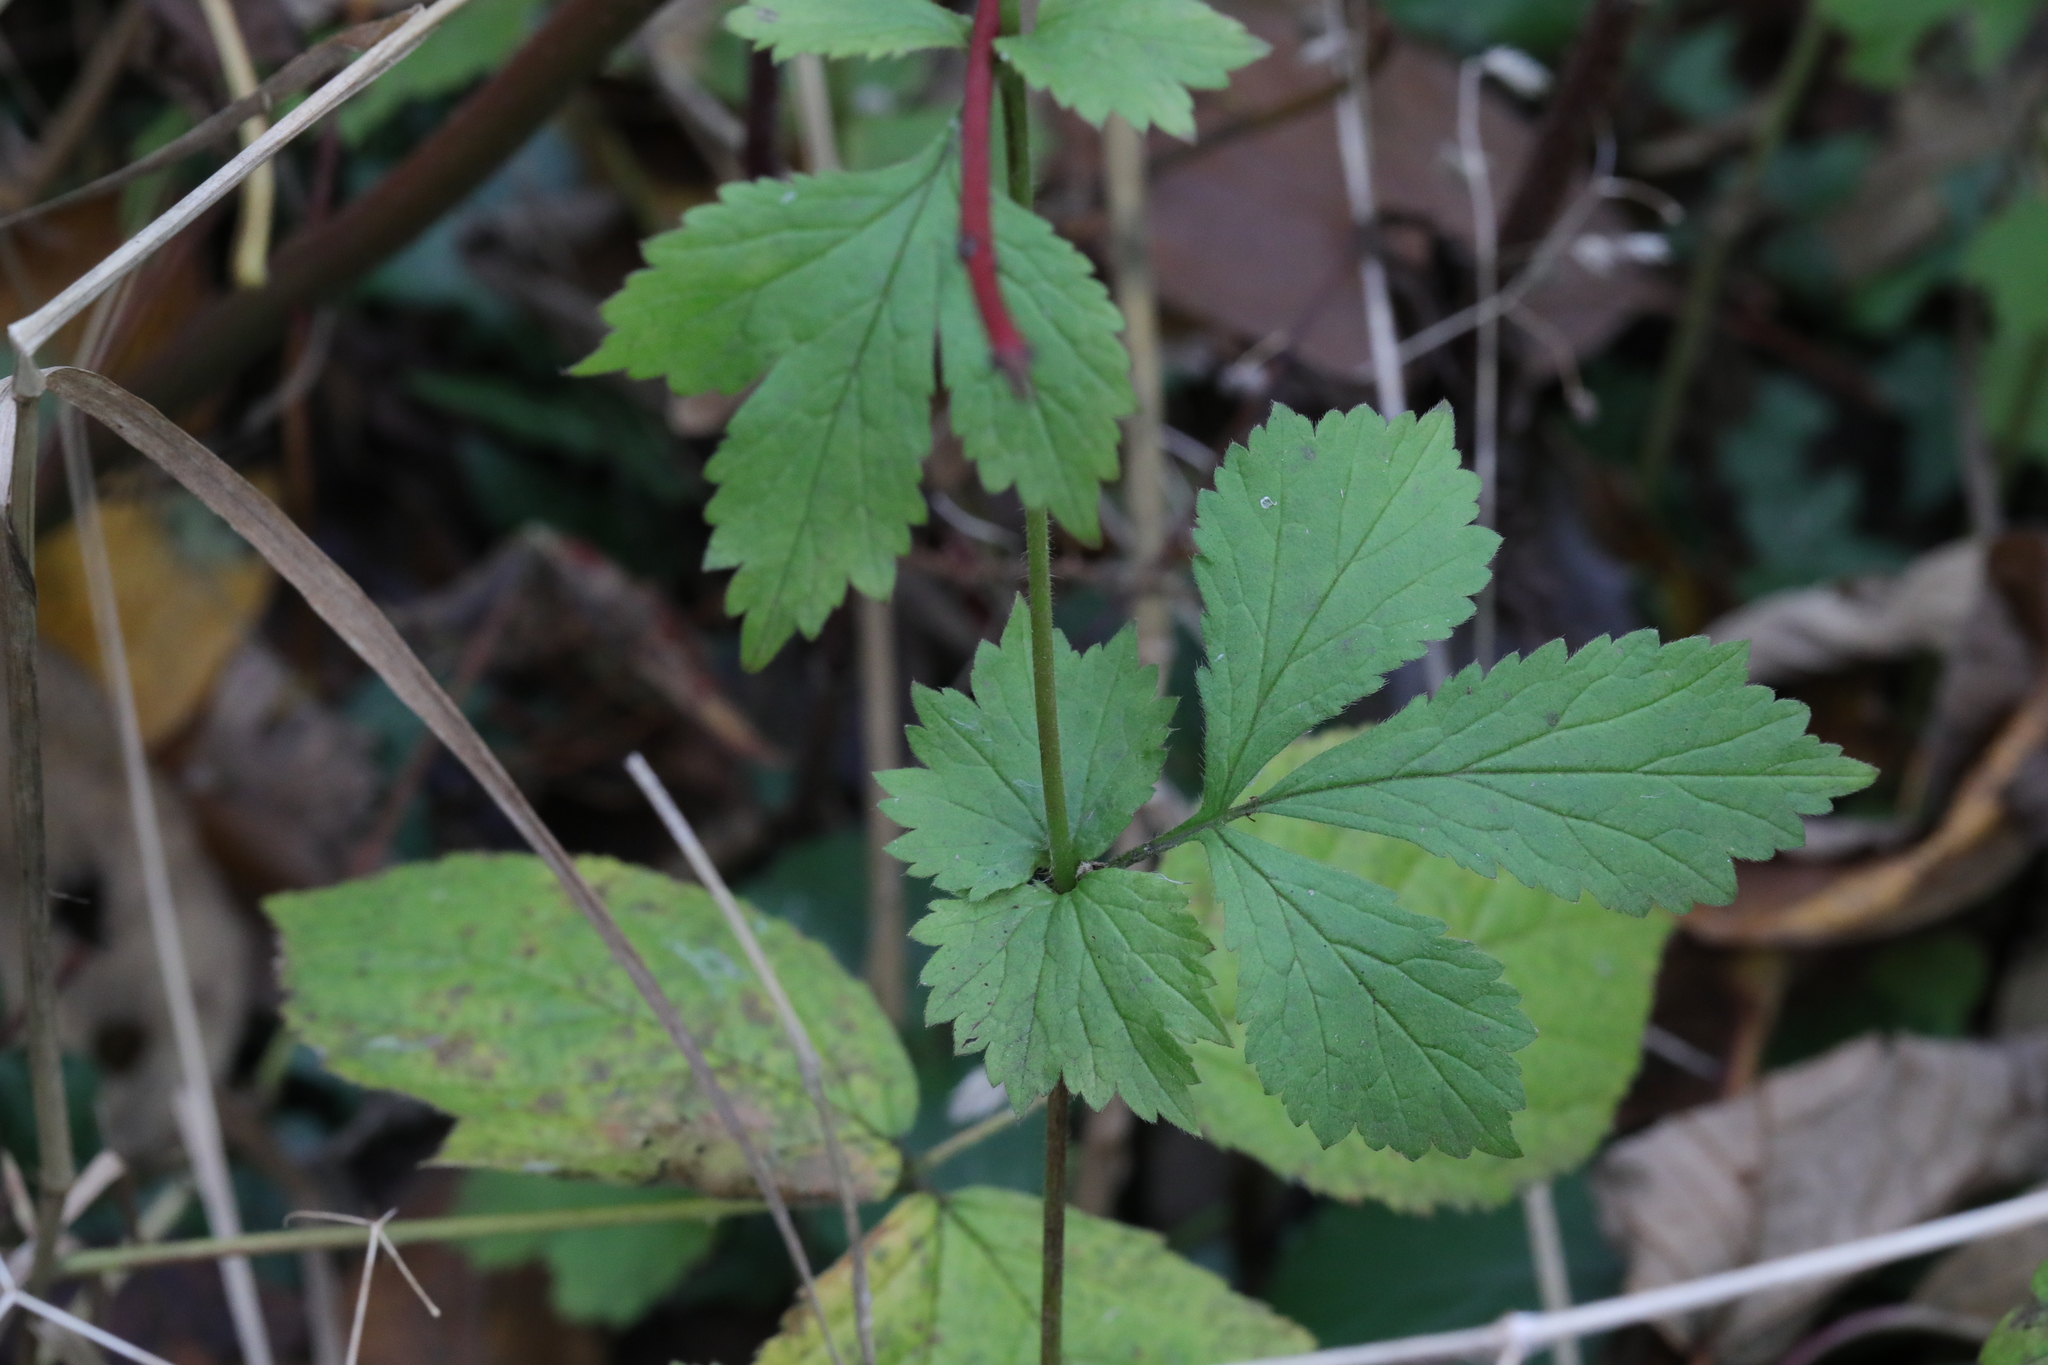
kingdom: Plantae
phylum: Tracheophyta
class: Magnoliopsida
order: Rosales
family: Rosaceae
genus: Geum
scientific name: Geum urbanum
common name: Wood avens
